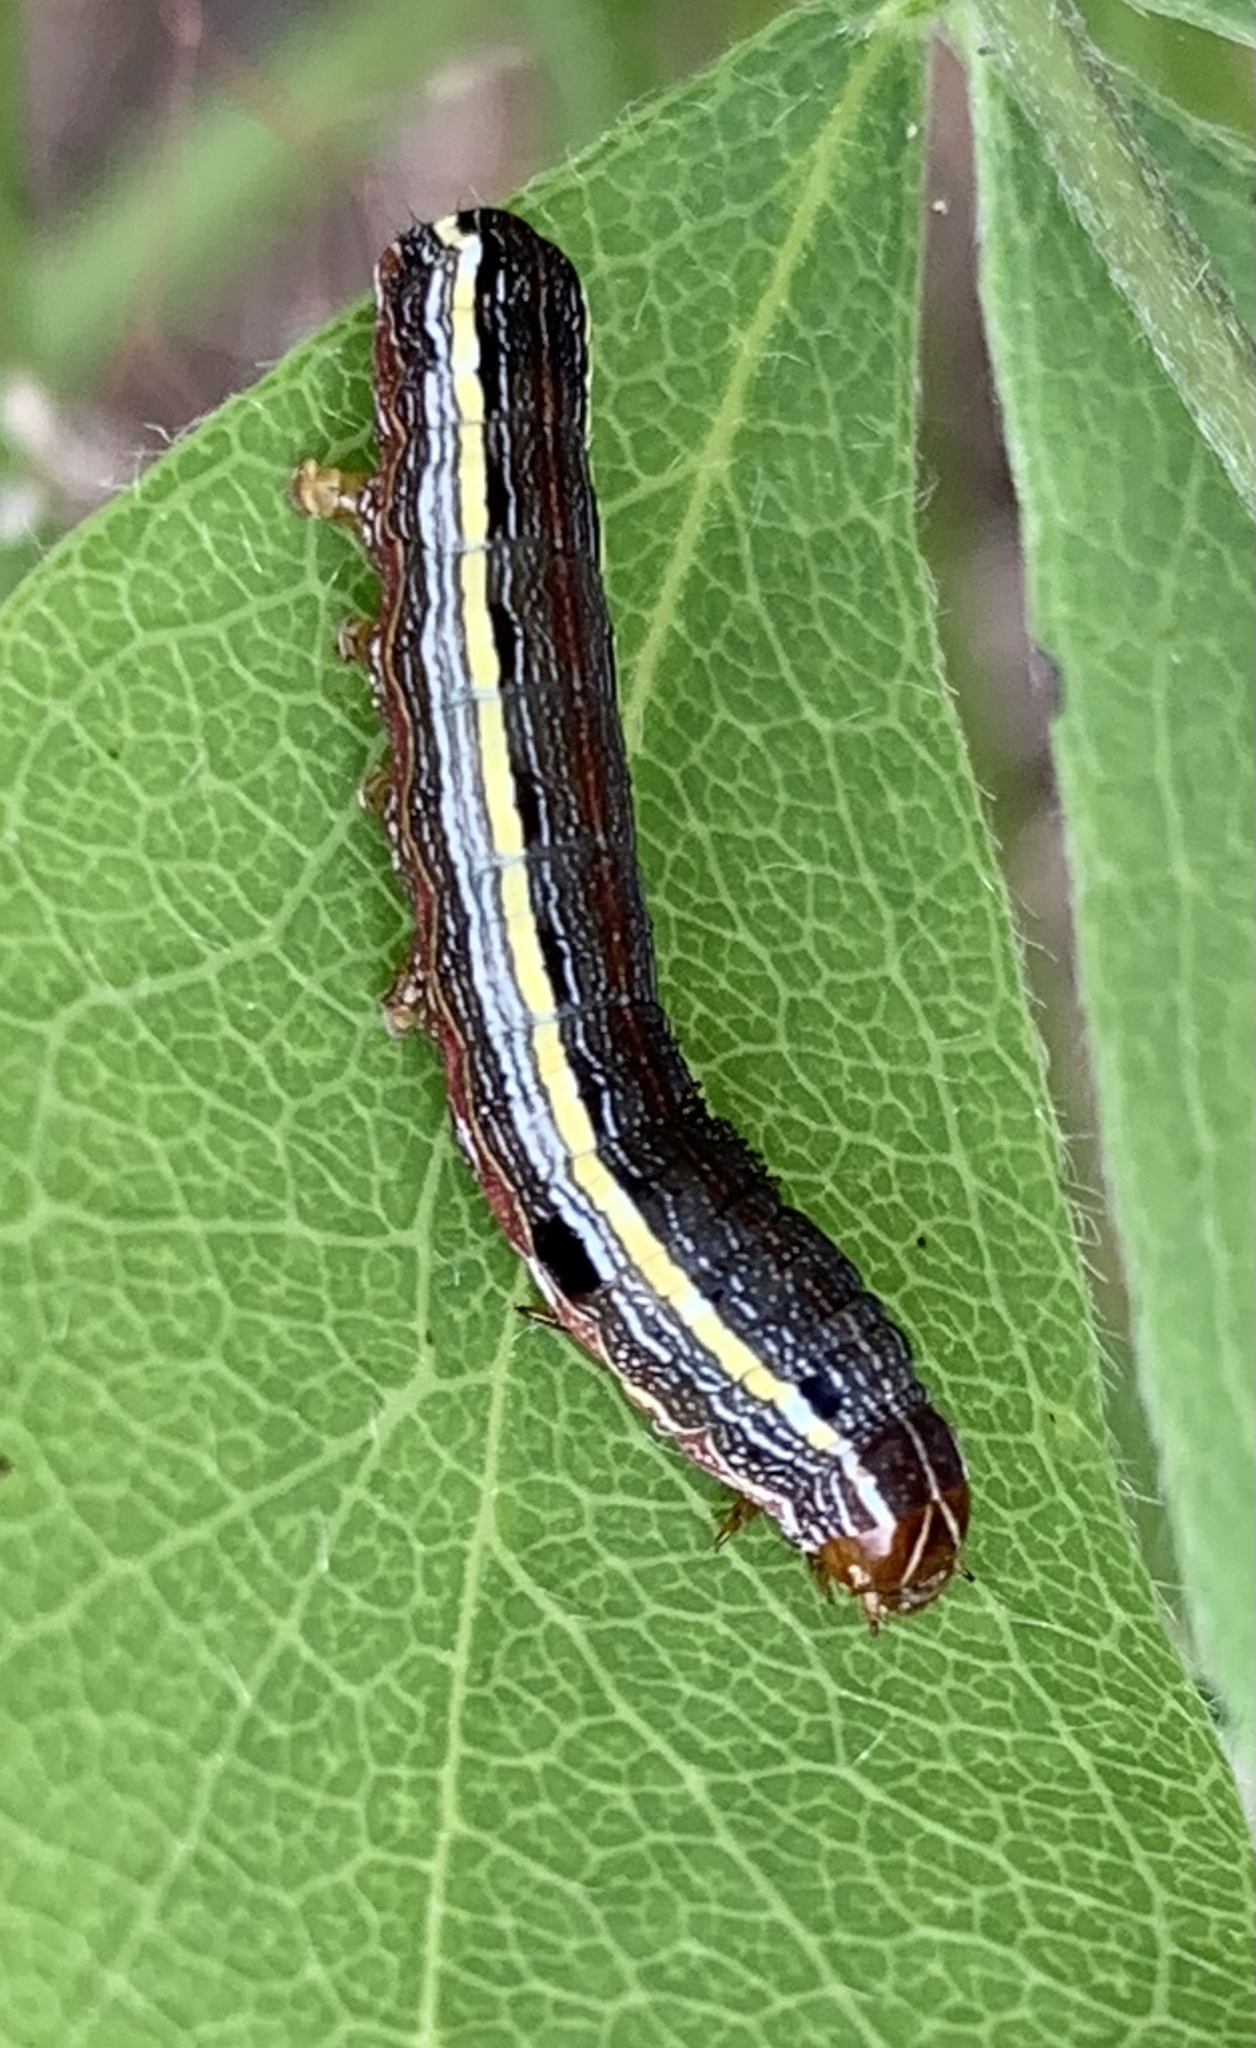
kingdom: Animalia
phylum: Arthropoda
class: Insecta
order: Lepidoptera
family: Noctuidae
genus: Spodoptera
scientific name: Spodoptera ornithogalli
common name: Yellow-striped armyworm
